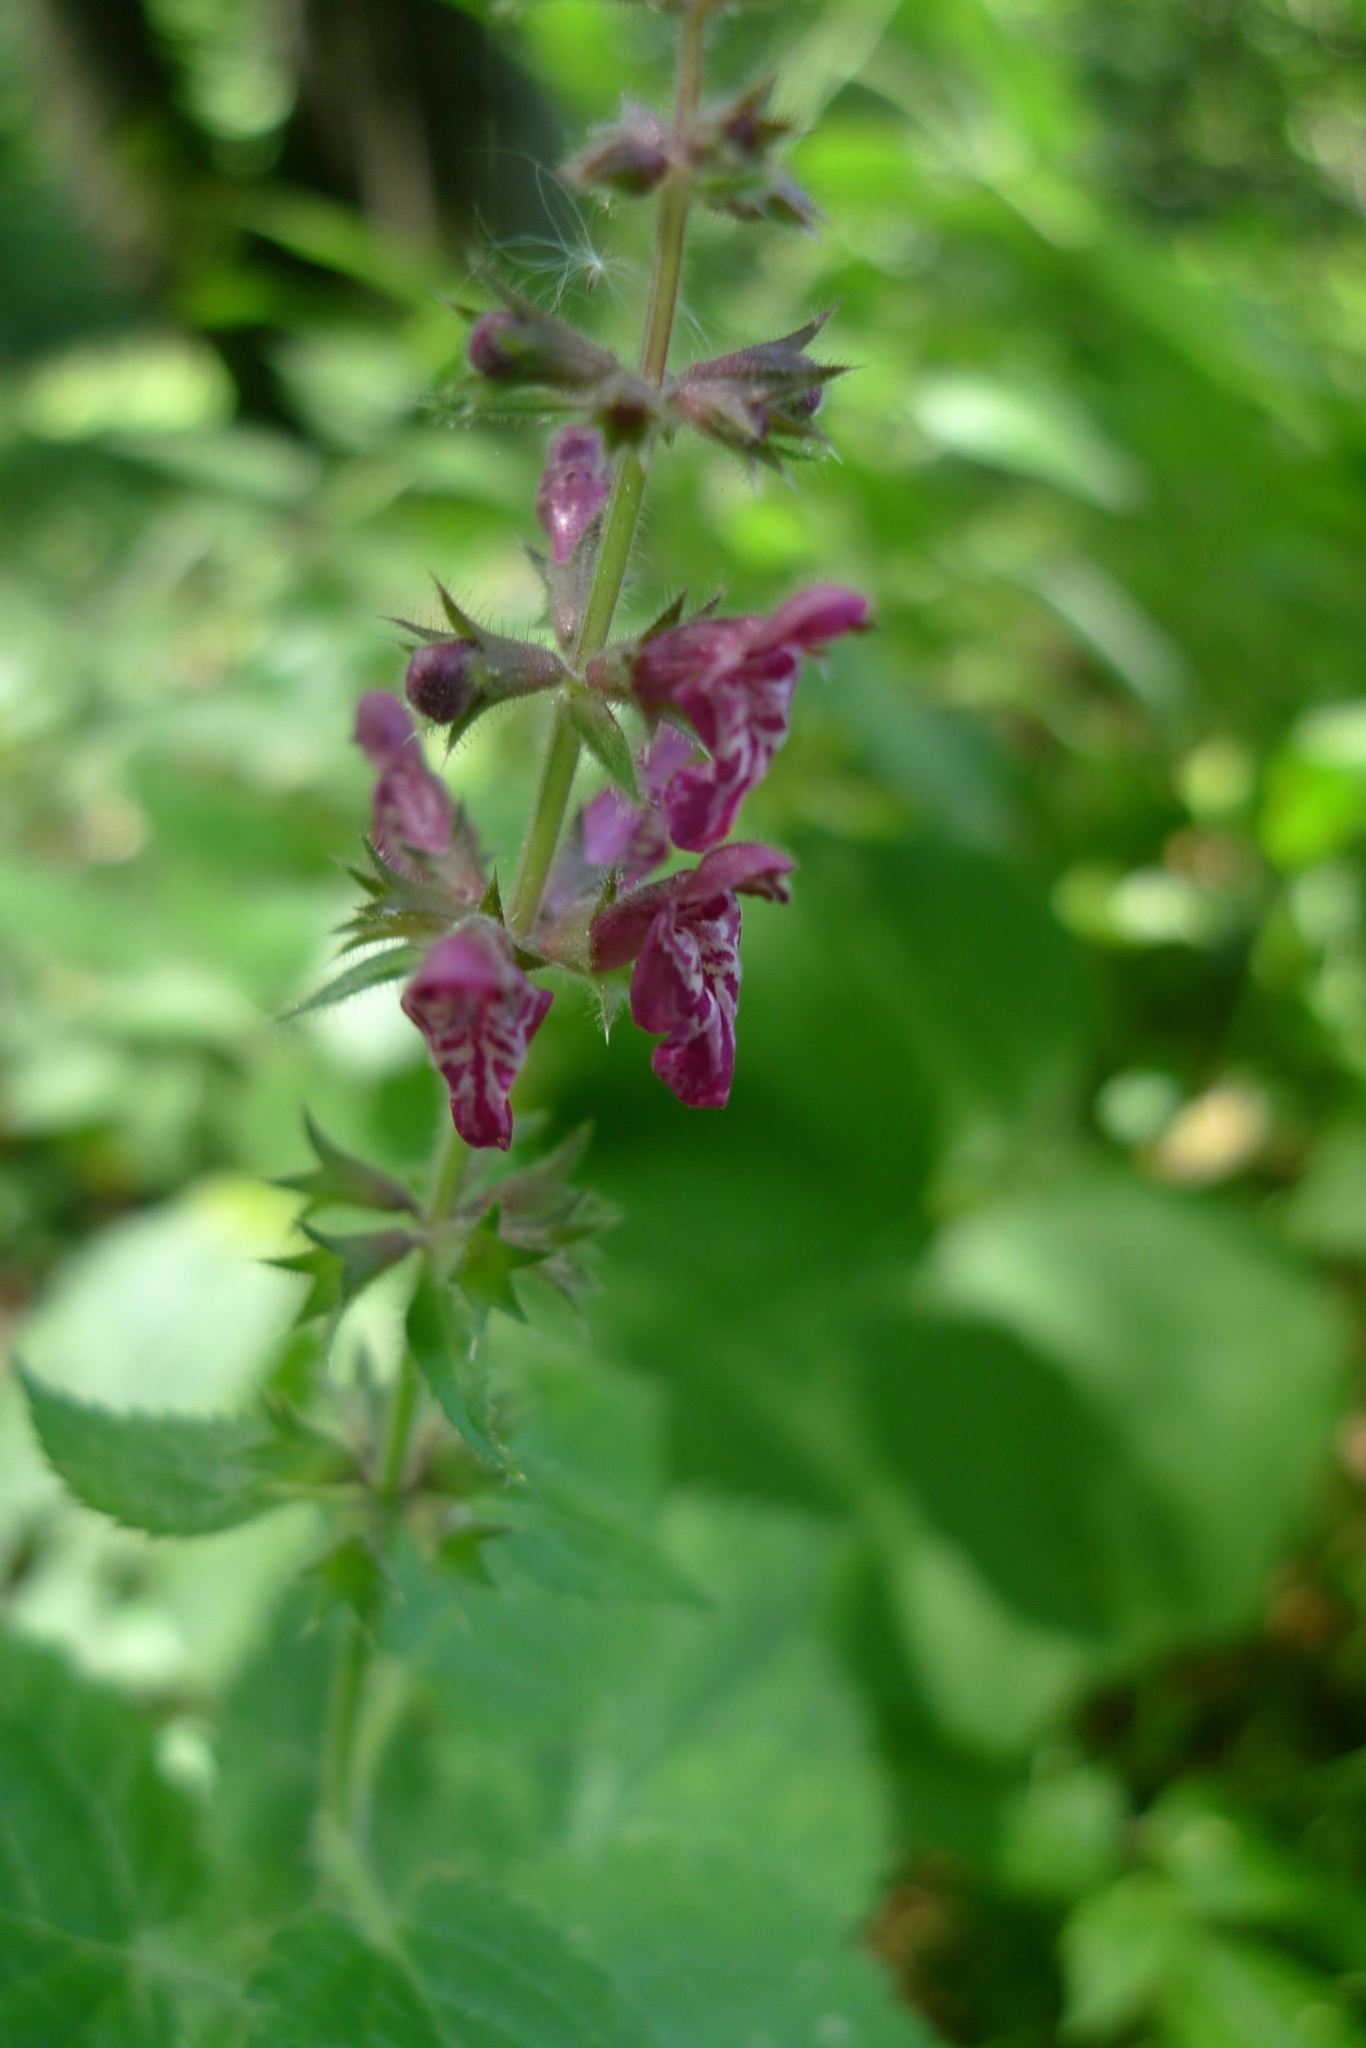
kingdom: Plantae
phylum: Tracheophyta
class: Magnoliopsida
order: Lamiales
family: Lamiaceae
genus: Stachys
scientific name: Stachys sylvatica
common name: Hedge woundwort
